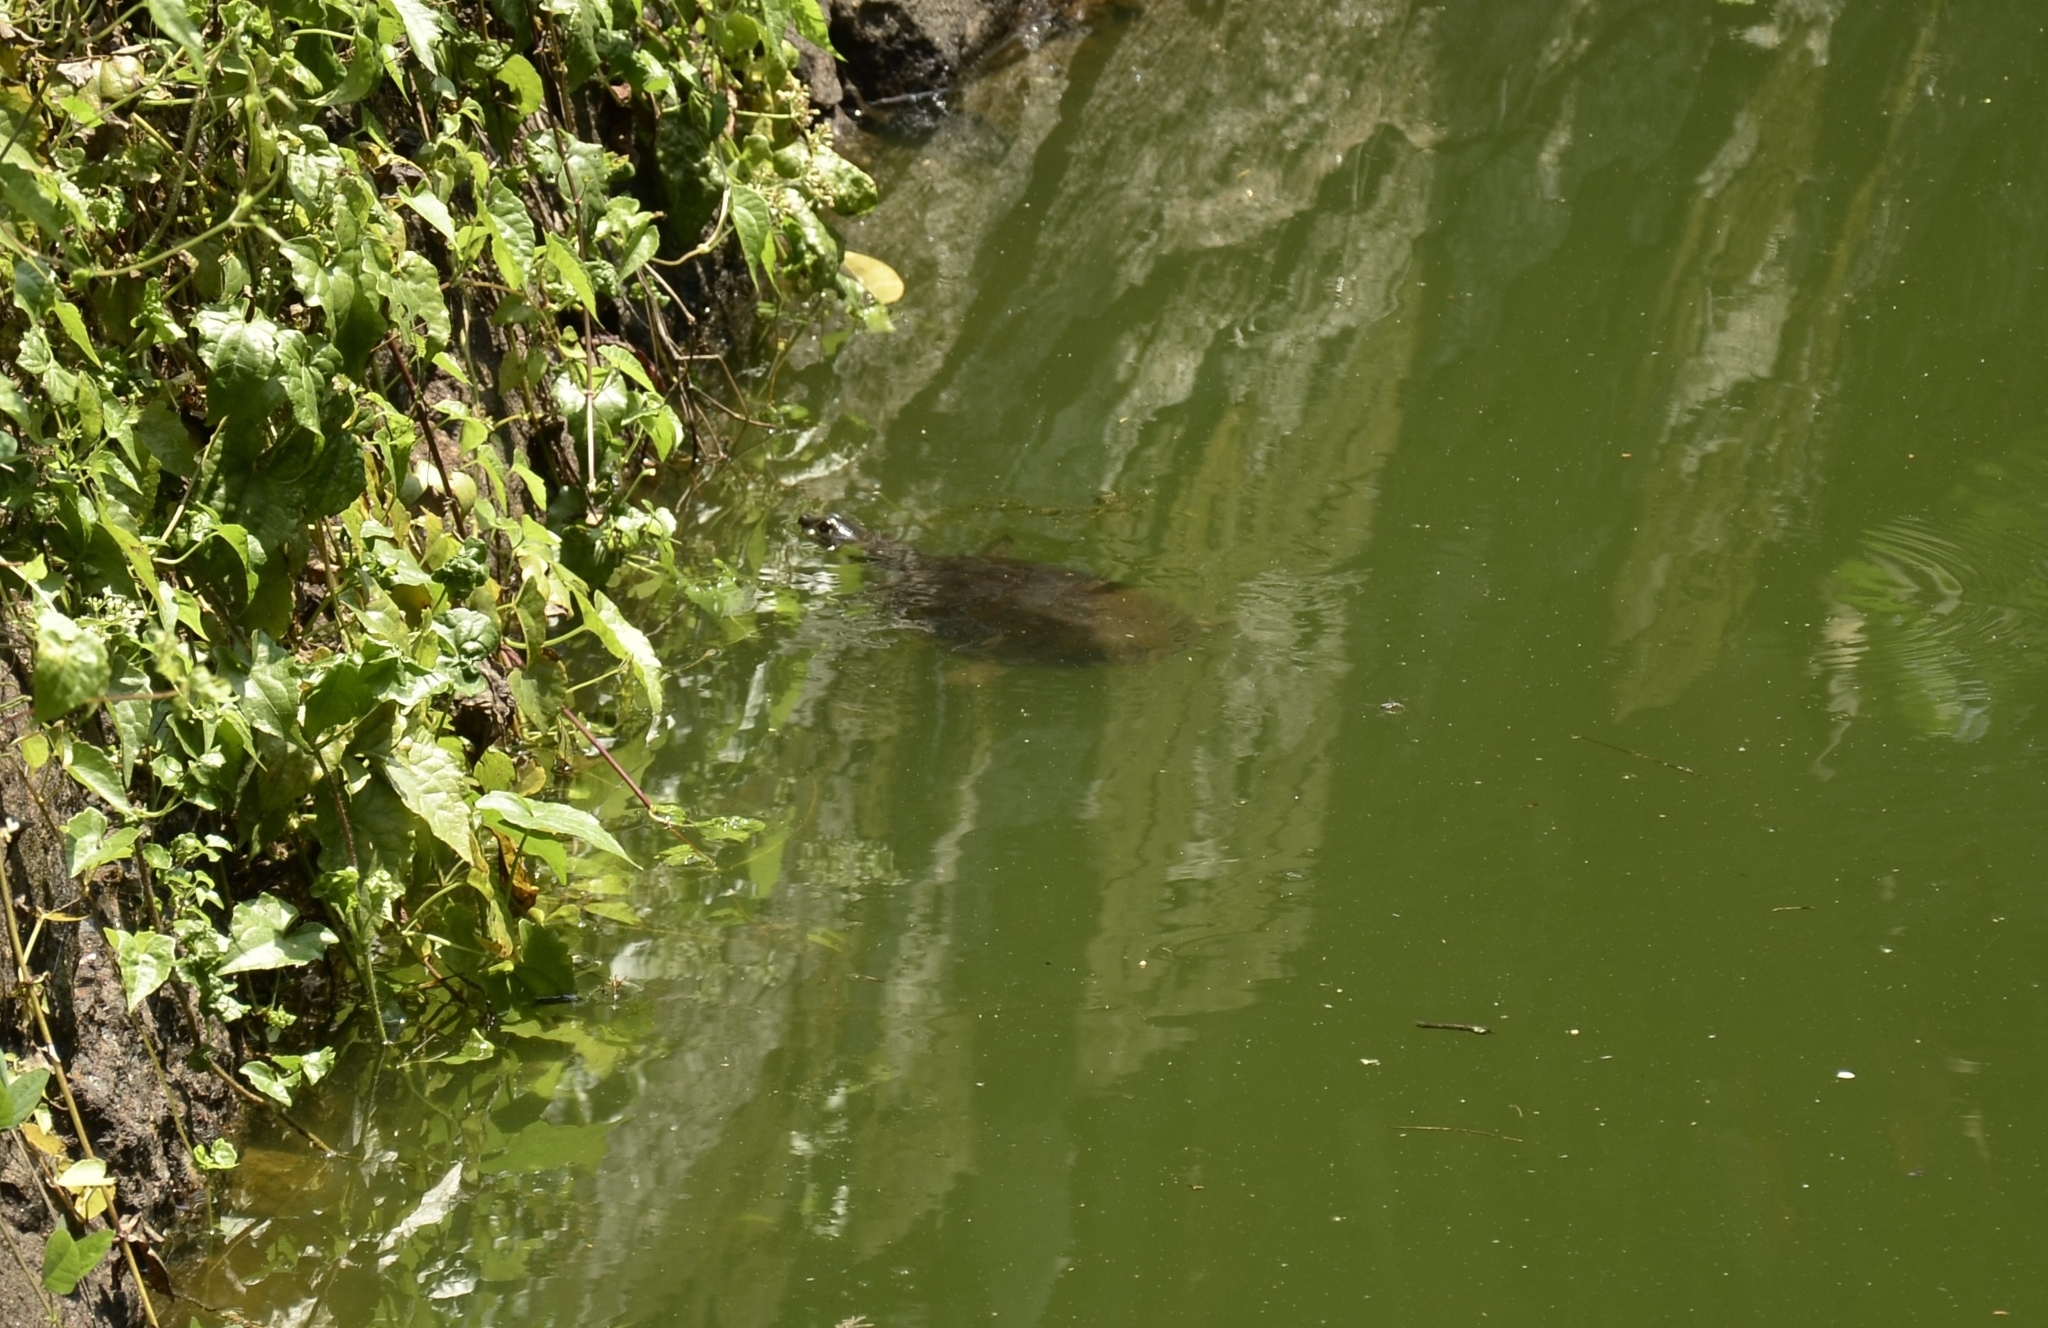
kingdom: Animalia
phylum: Chordata
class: Testudines
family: Trionychidae
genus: Lissemys
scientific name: Lissemys punctata
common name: Indian flap-shelled turtle
